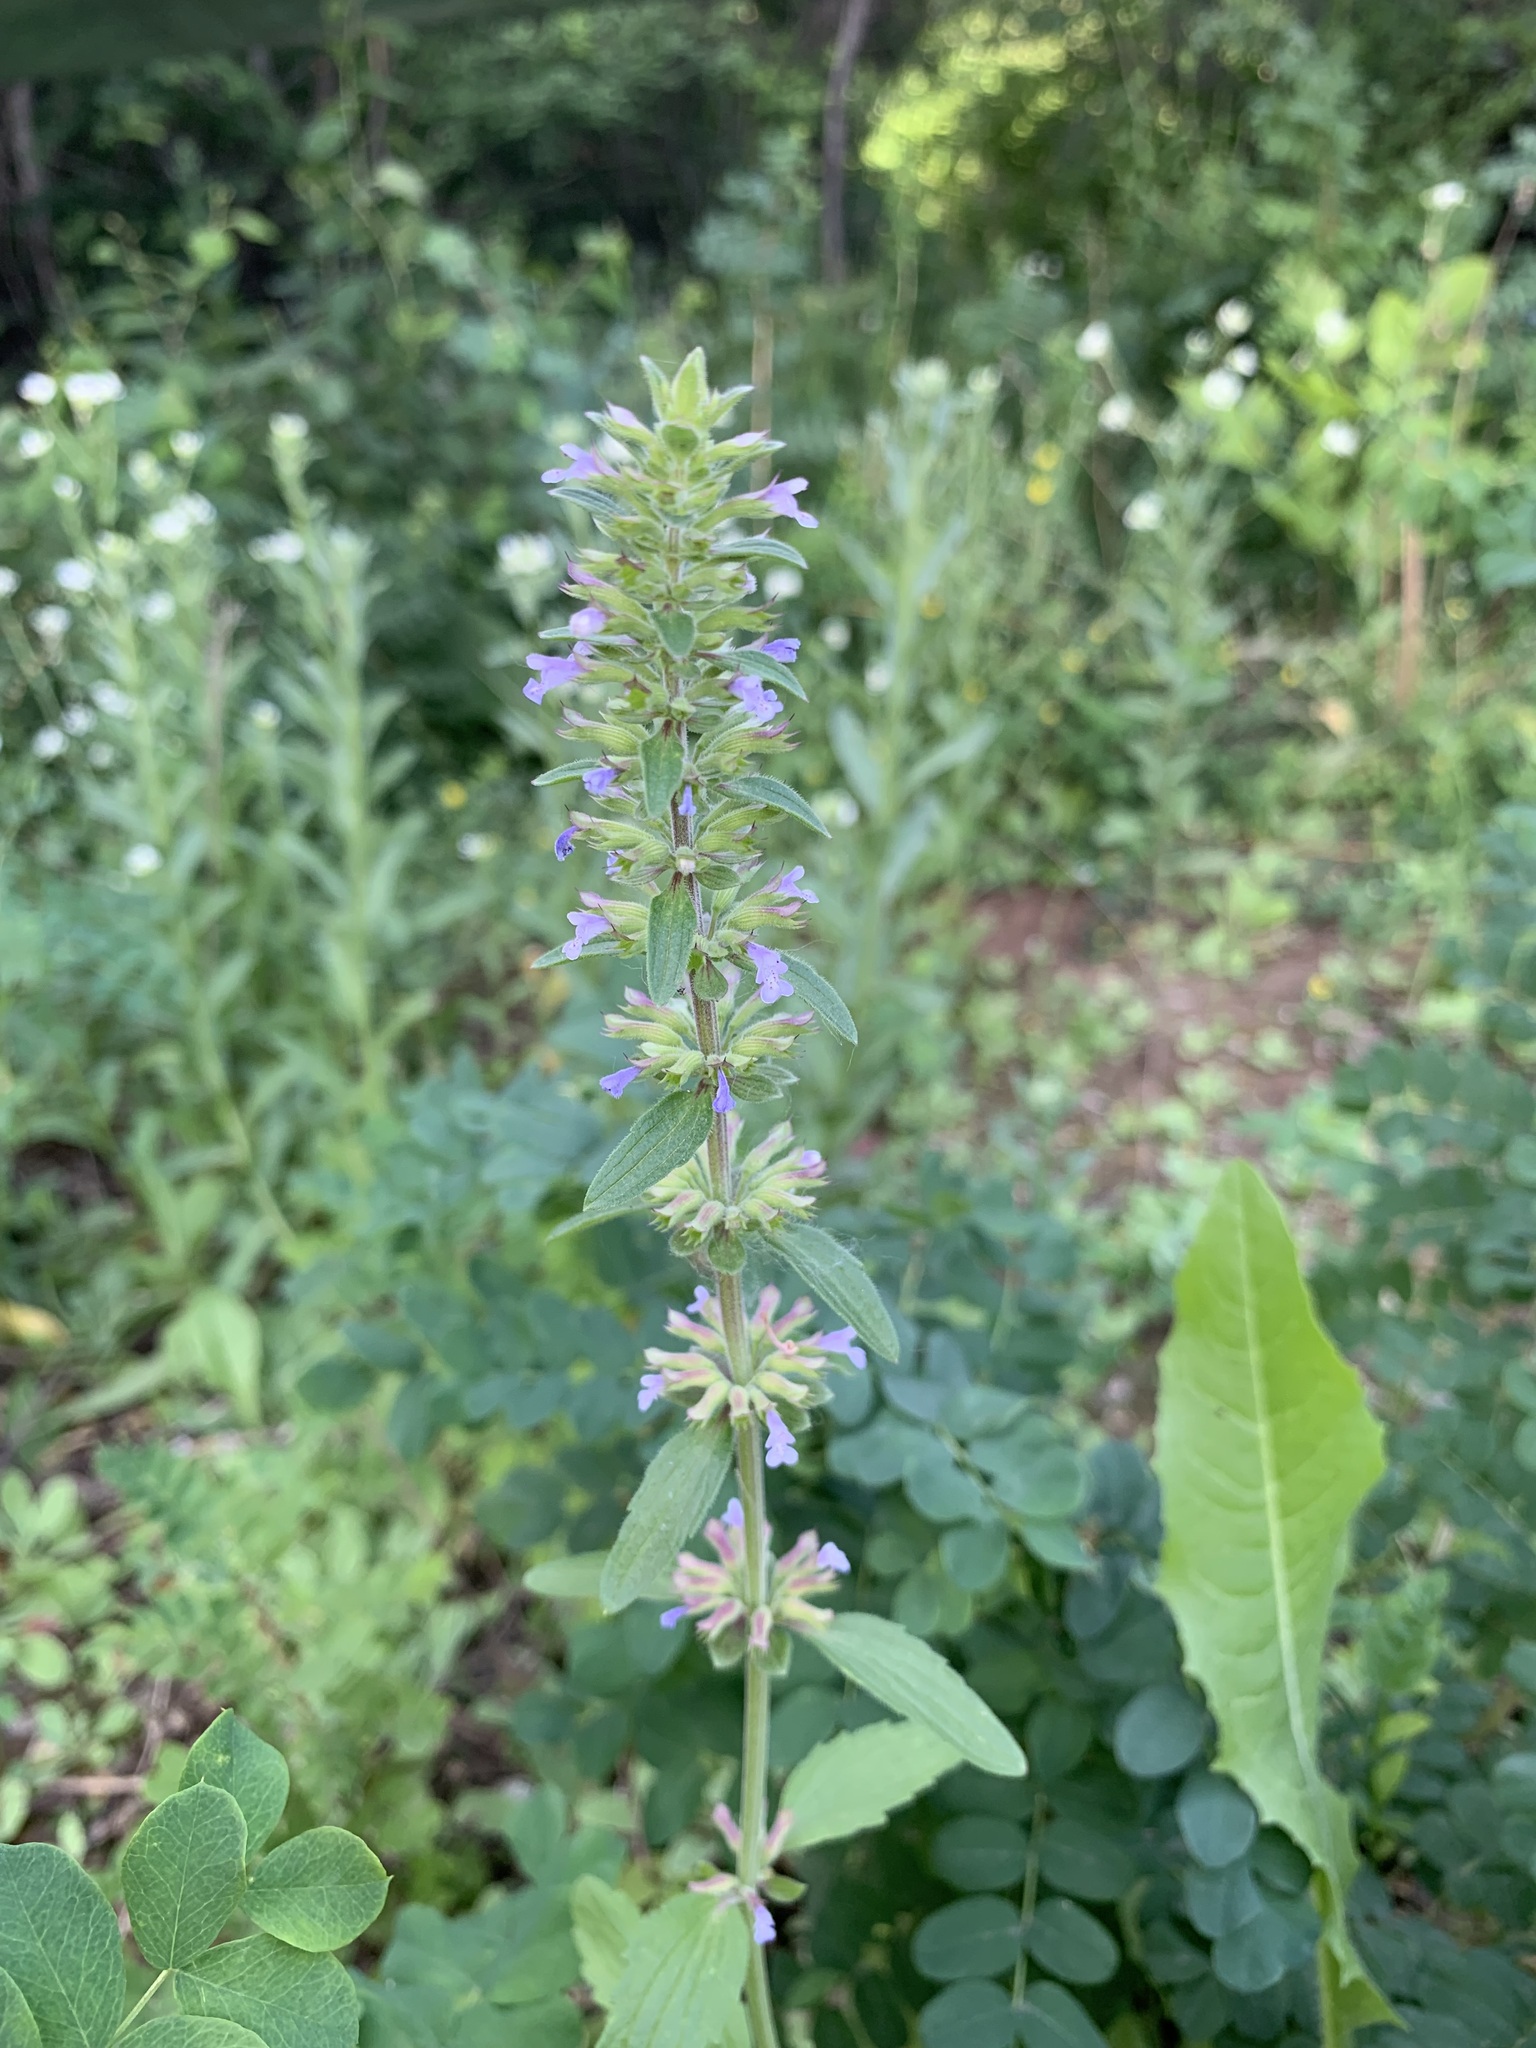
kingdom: Plantae
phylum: Tracheophyta
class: Magnoliopsida
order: Lamiales
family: Lamiaceae
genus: Dracocephalum
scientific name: Dracocephalum thymiflorum
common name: Thymeleaf dragonhead
